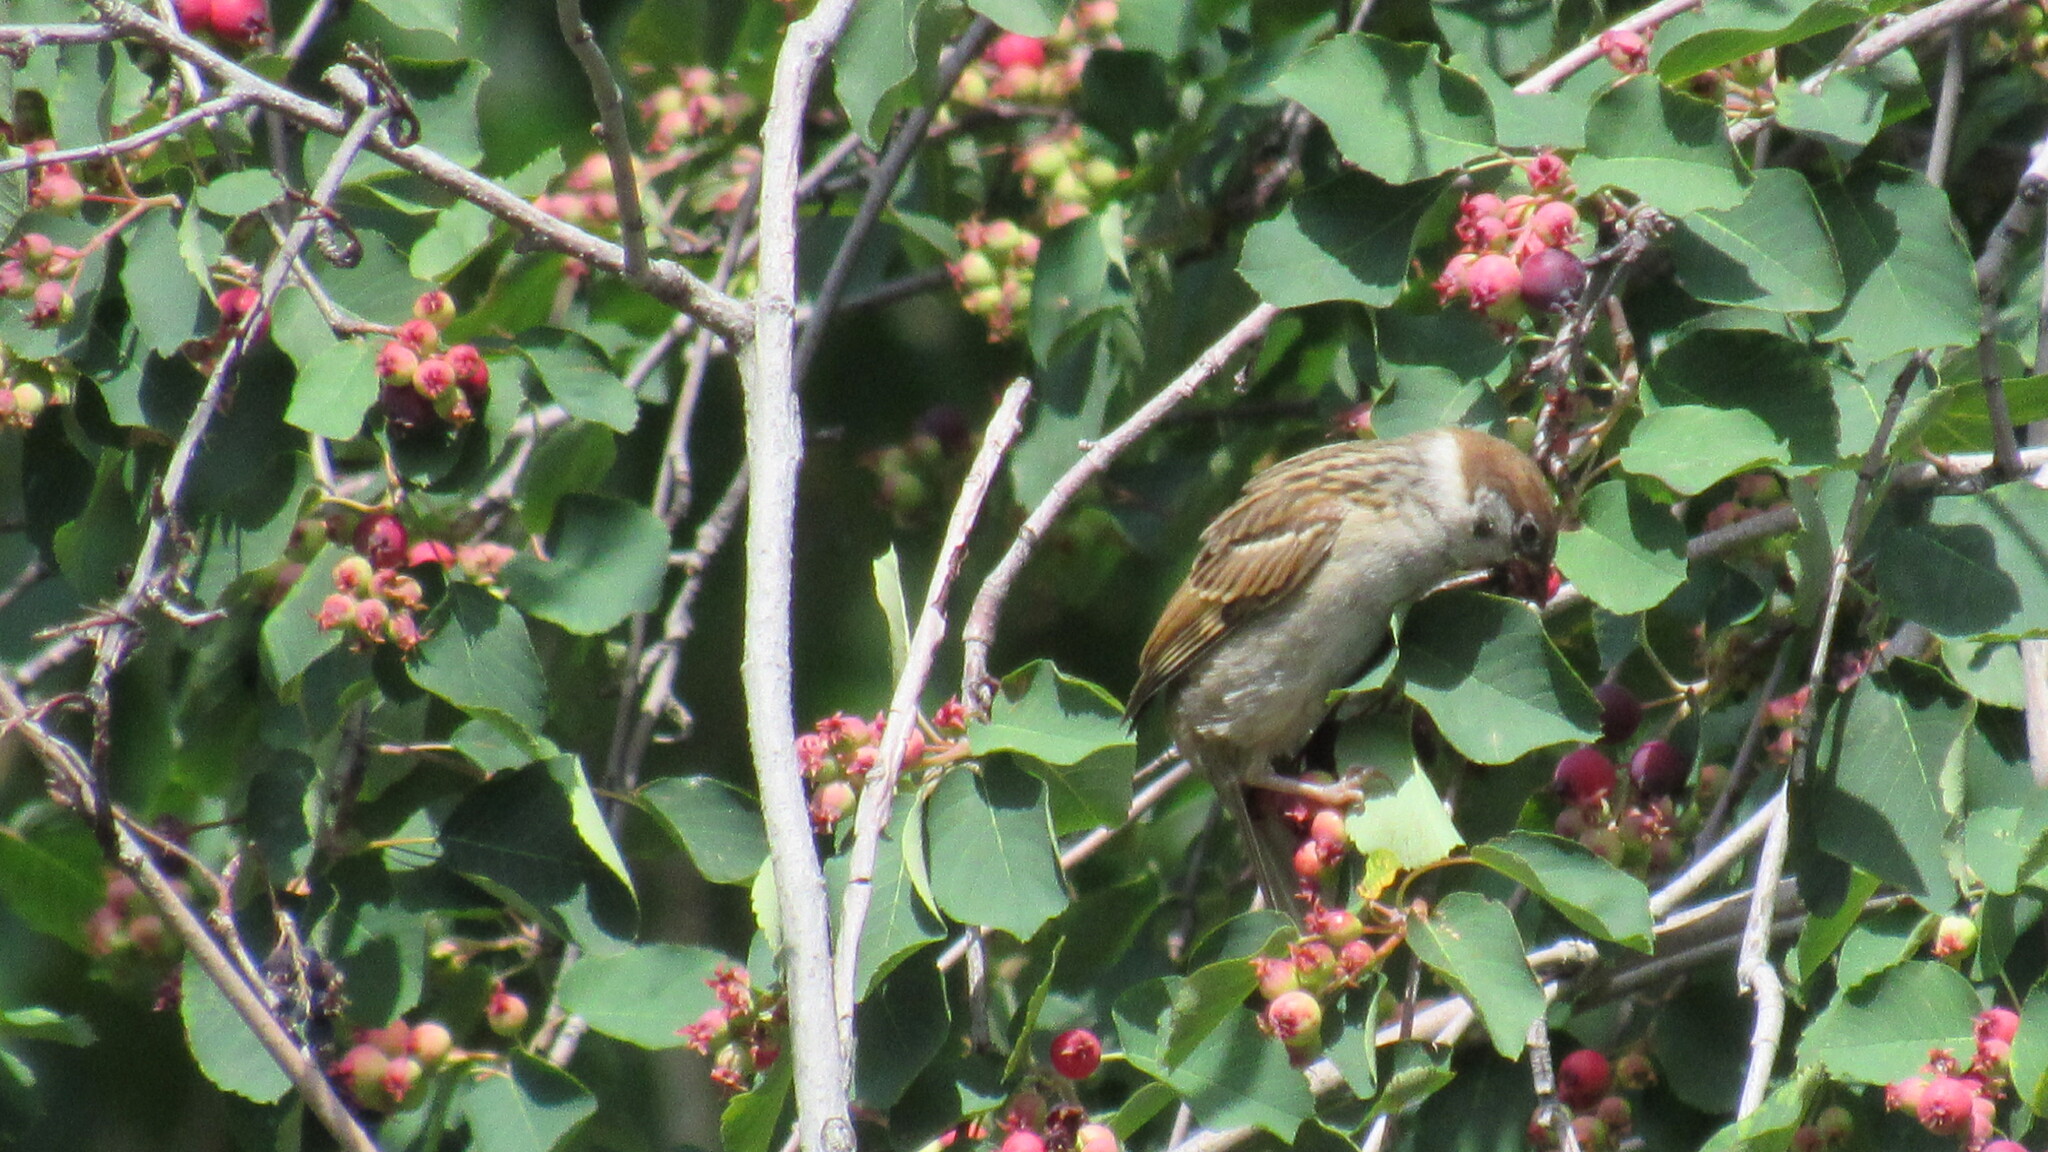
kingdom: Animalia
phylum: Chordata
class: Aves
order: Passeriformes
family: Passeridae
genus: Passer
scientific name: Passer montanus
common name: Eurasian tree sparrow
